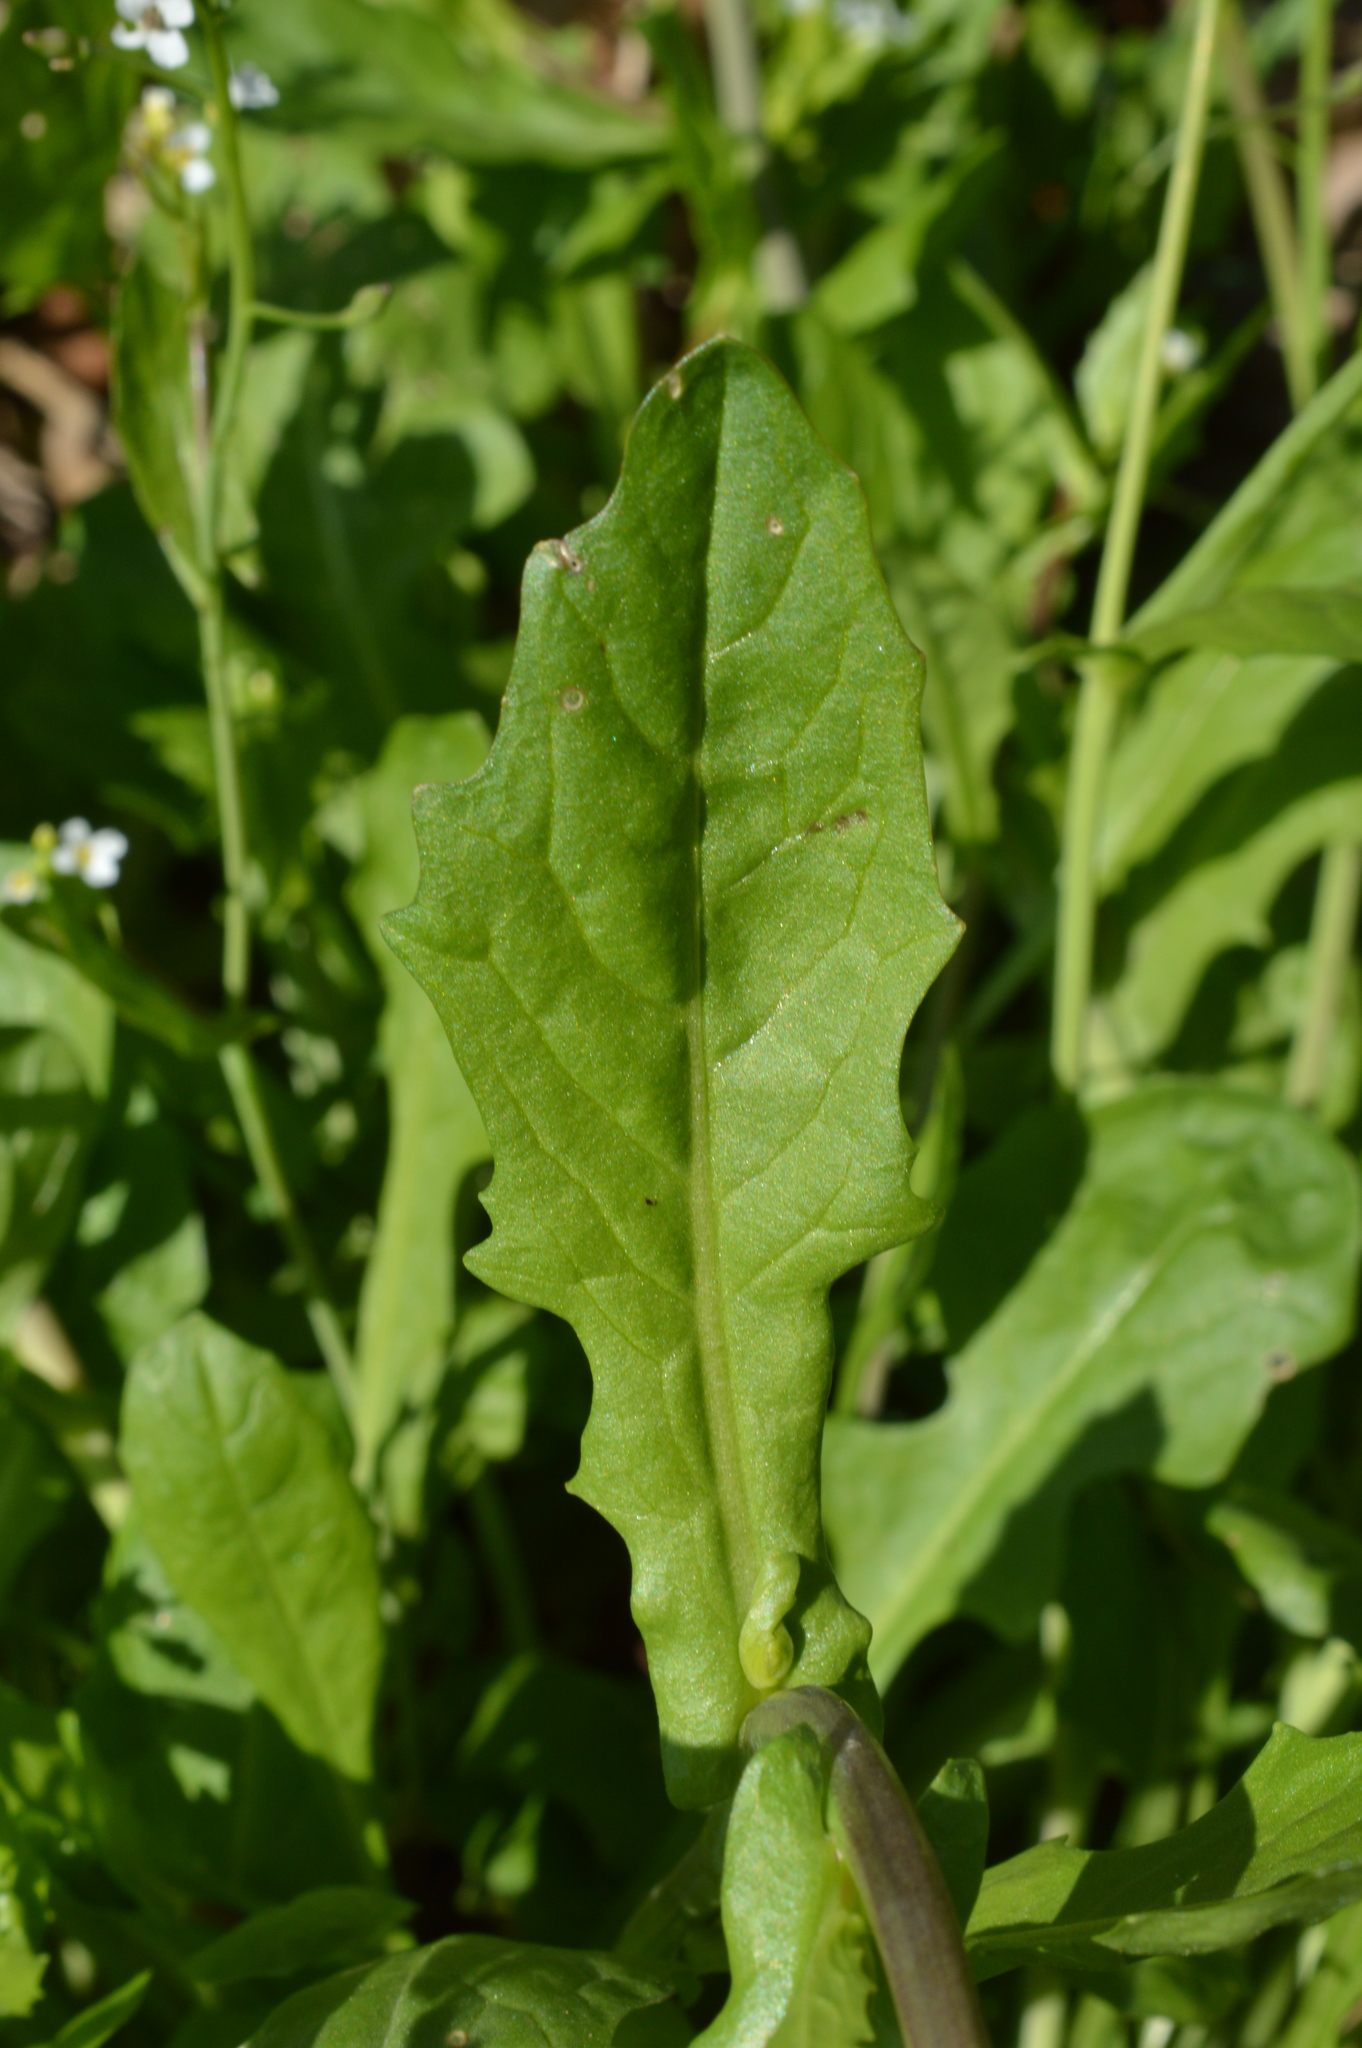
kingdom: Plantae
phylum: Tracheophyta
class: Magnoliopsida
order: Brassicales
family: Brassicaceae
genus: Calepina
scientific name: Calepina irregularis
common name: White ballmustard
